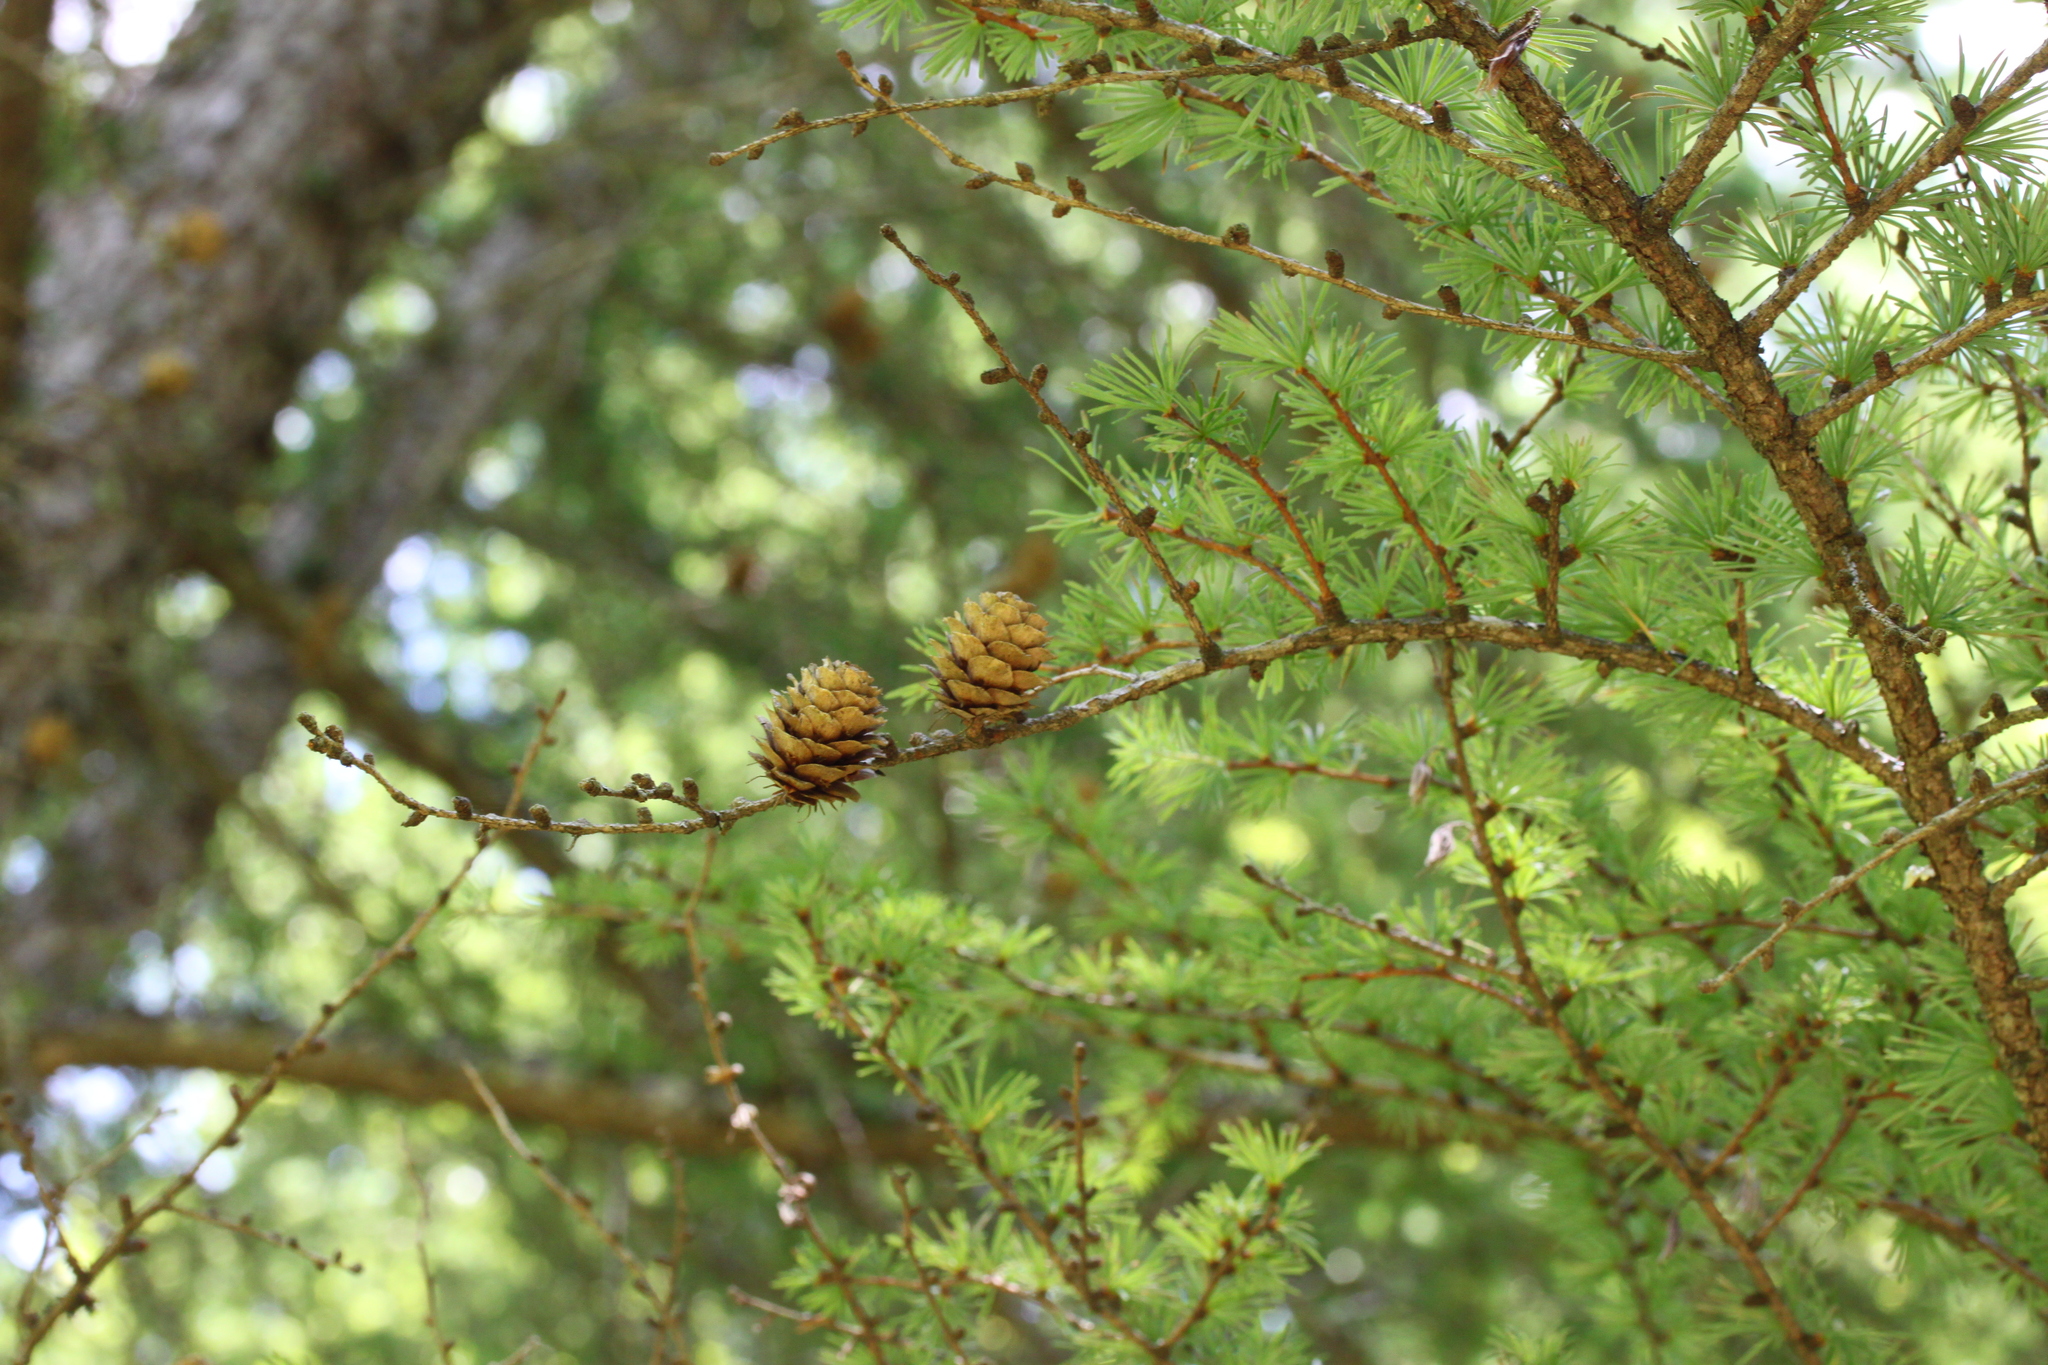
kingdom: Plantae
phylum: Tracheophyta
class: Pinopsida
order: Pinales
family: Pinaceae
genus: Larix
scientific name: Larix decidua
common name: European larch
